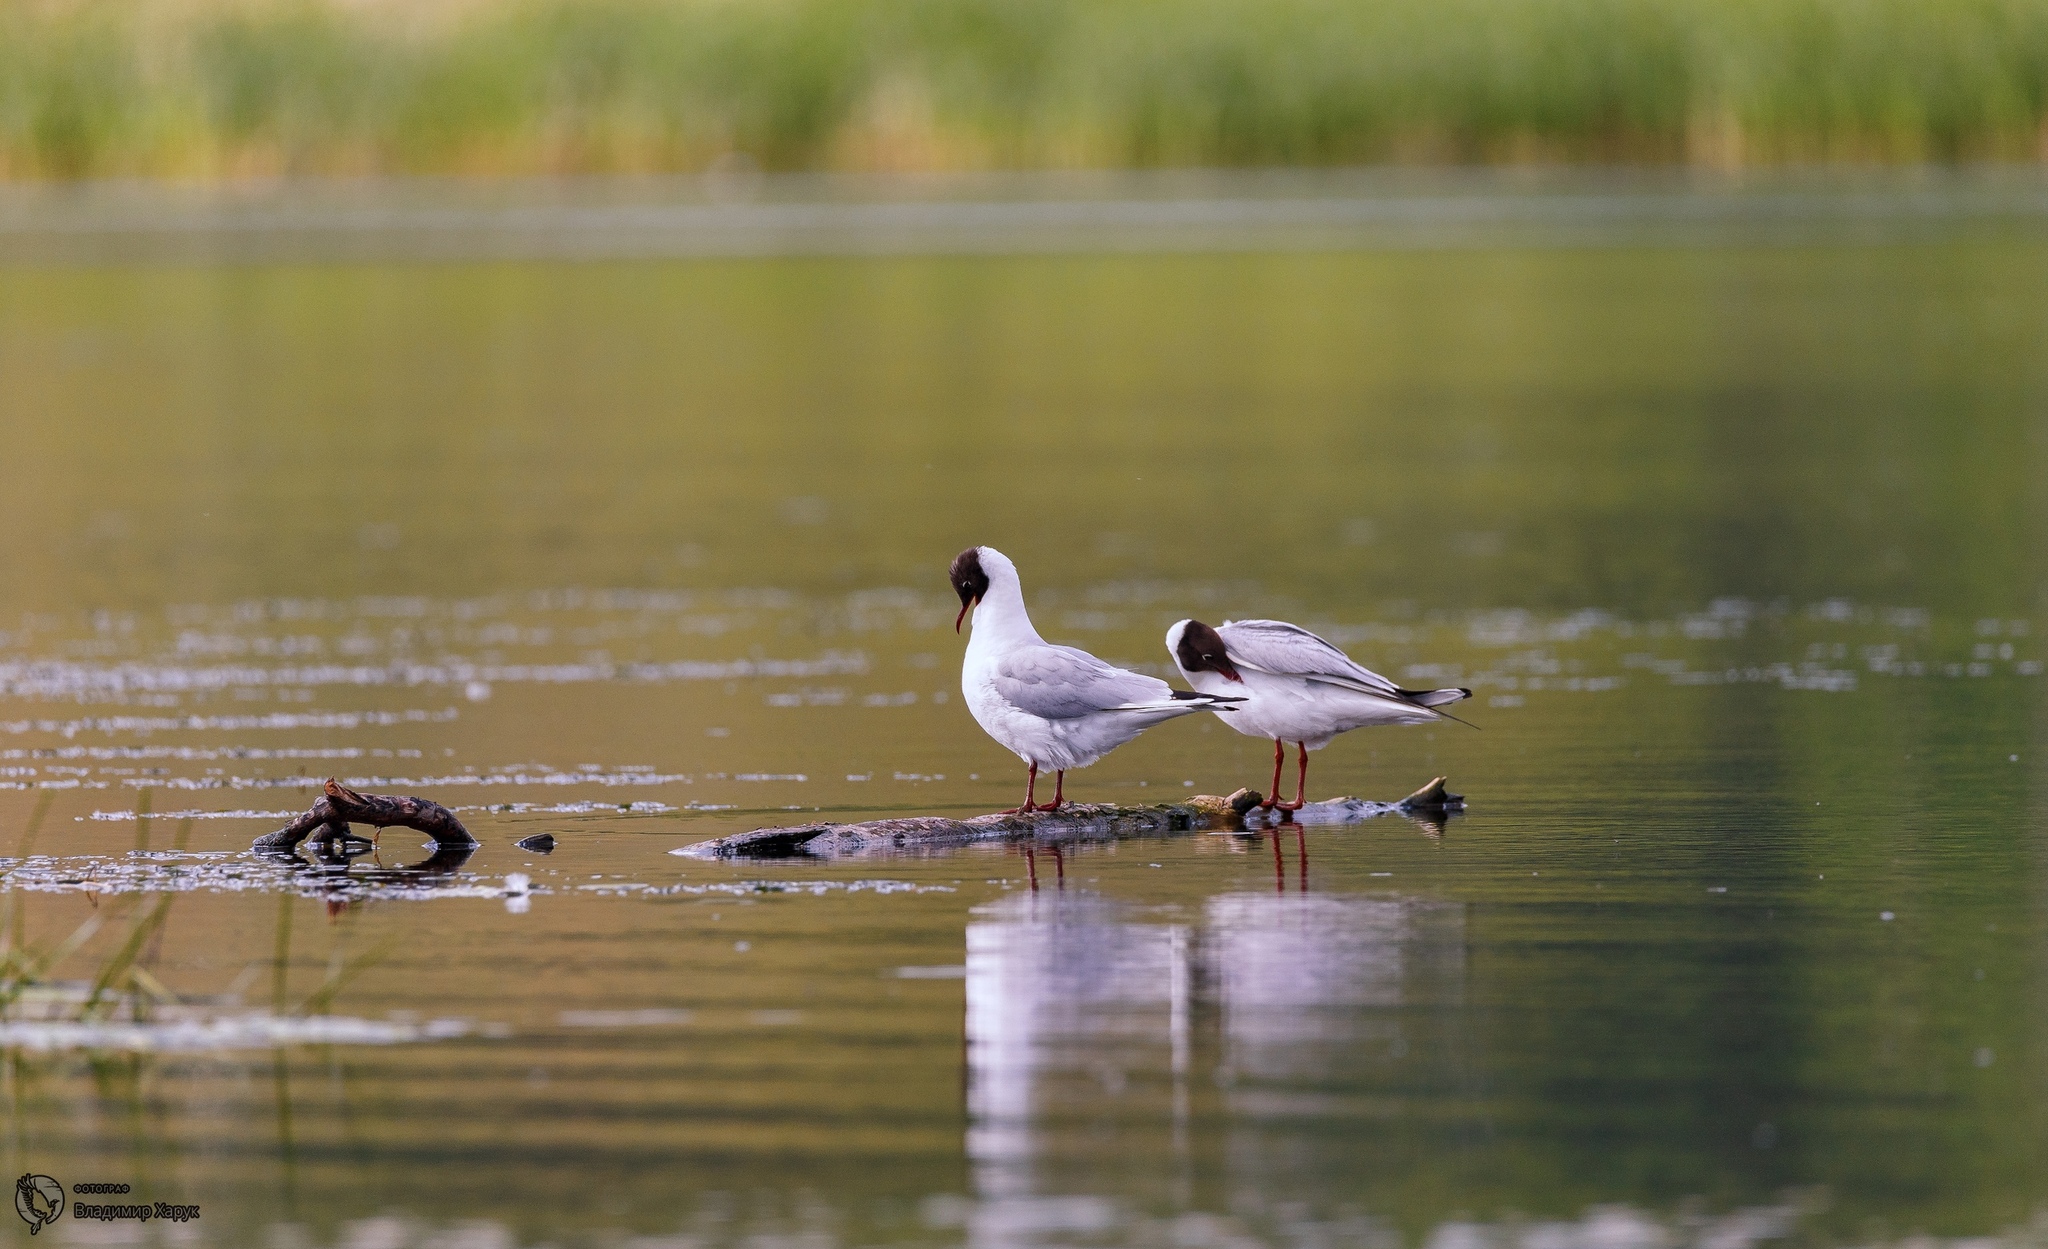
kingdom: Animalia
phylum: Chordata
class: Aves
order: Charadriiformes
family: Laridae
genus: Chroicocephalus
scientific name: Chroicocephalus ridibundus
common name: Black-headed gull
